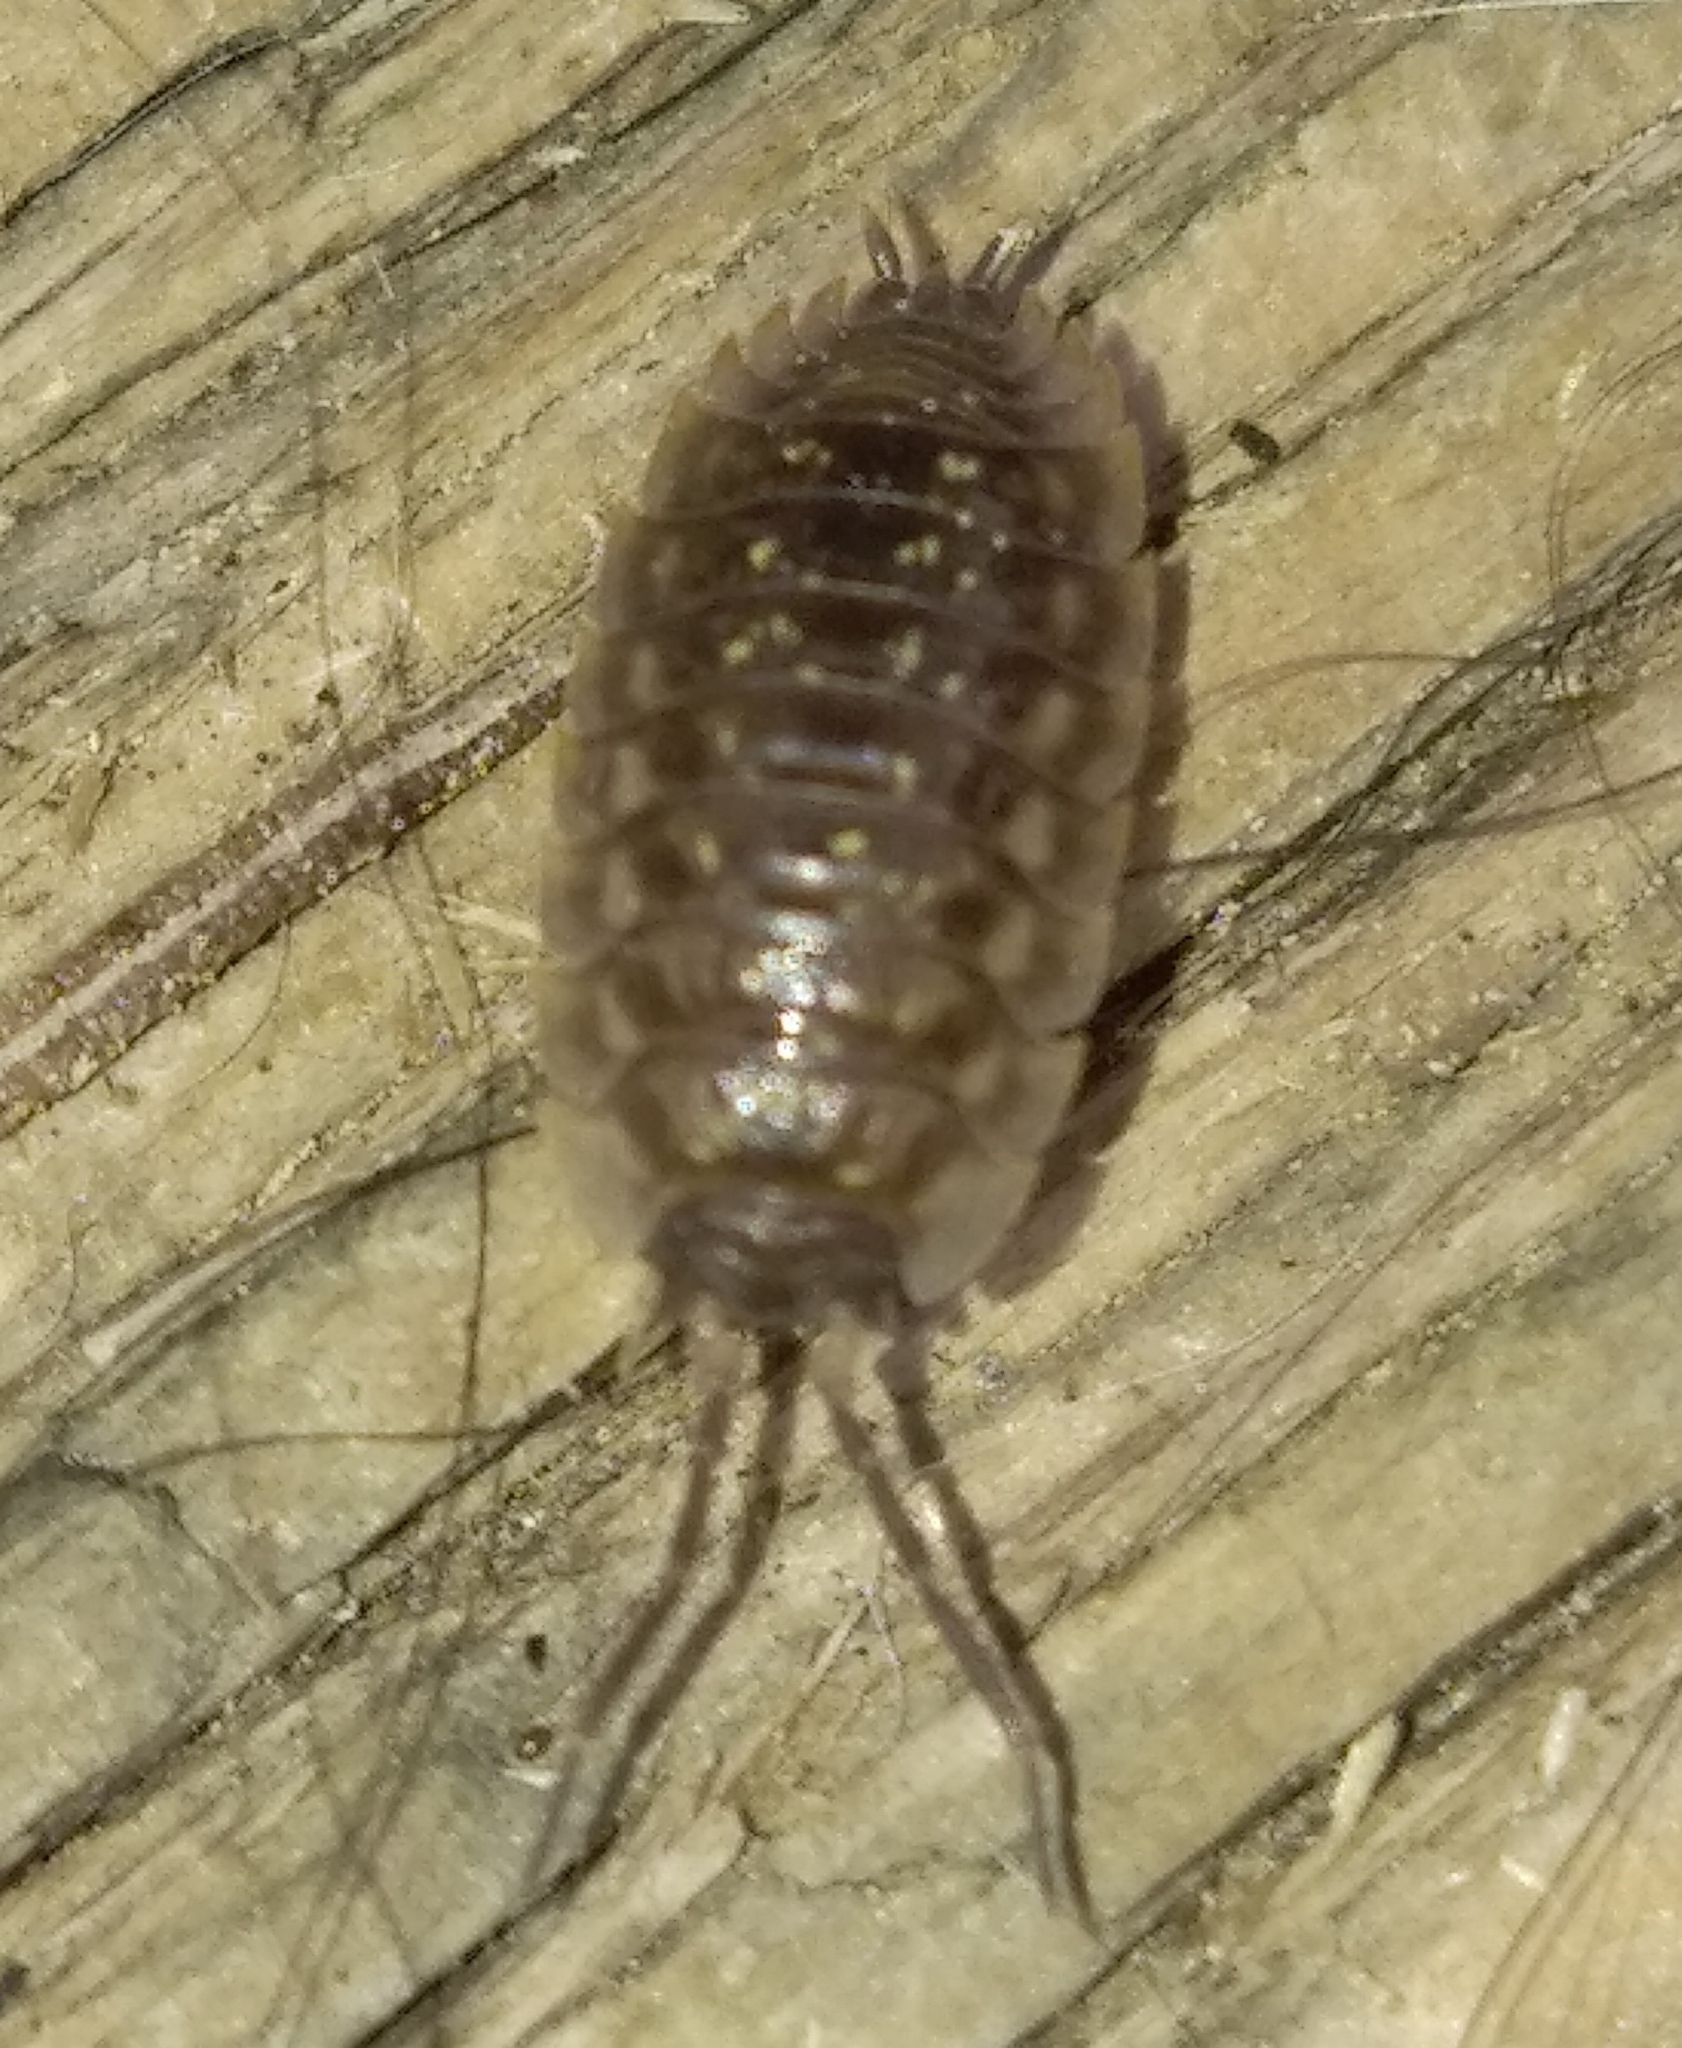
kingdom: Animalia
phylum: Arthropoda
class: Malacostraca
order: Isopoda
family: Oniscidae
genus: Oniscus
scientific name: Oniscus asellus
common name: Common shiny woodlouse
